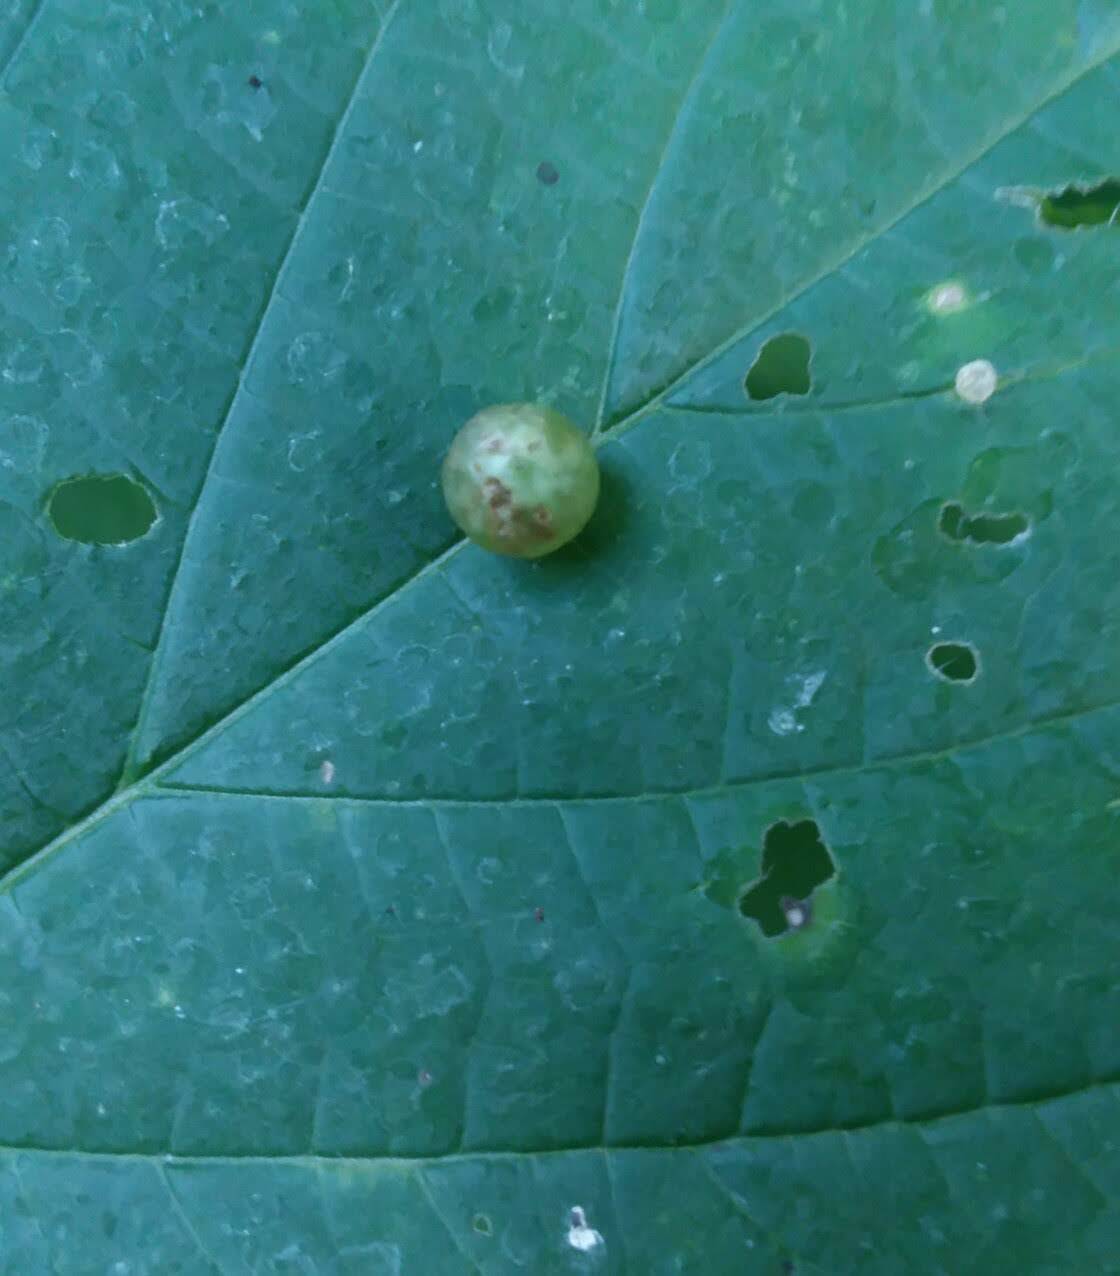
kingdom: Animalia
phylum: Arthropoda
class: Insecta
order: Diptera
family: Cecidomyiidae
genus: Dasineura
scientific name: Dasineura investita
